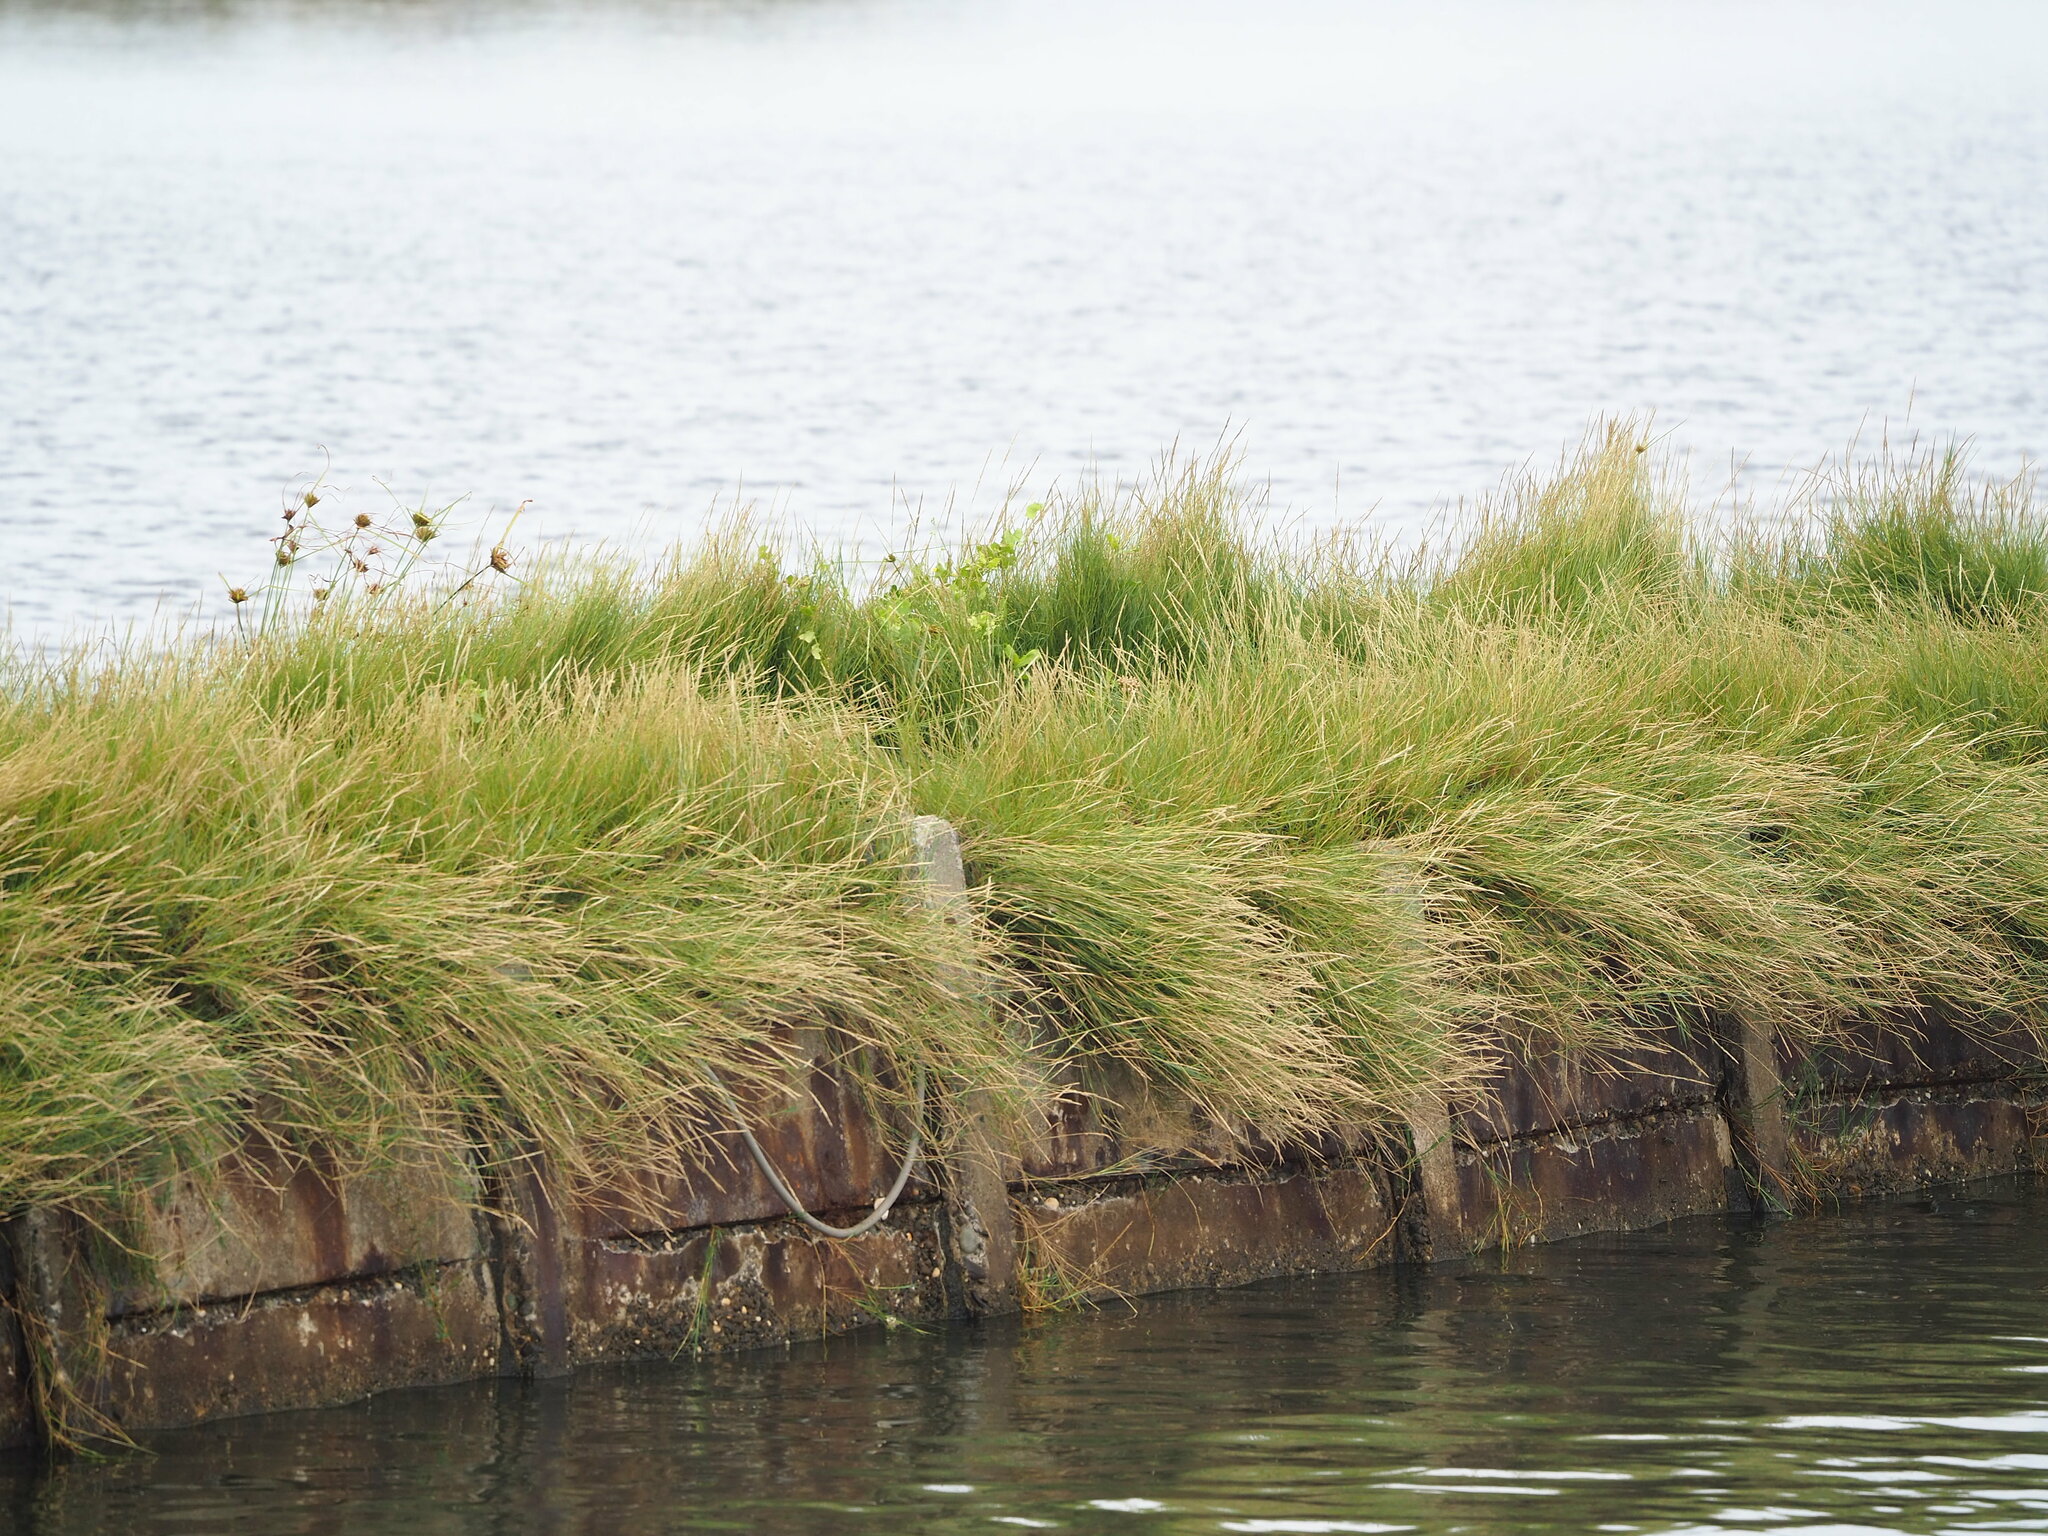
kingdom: Plantae
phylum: Tracheophyta
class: Liliopsida
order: Poales
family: Poaceae
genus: Sporobolus
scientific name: Sporobolus virginicus
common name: Beach dropseed
